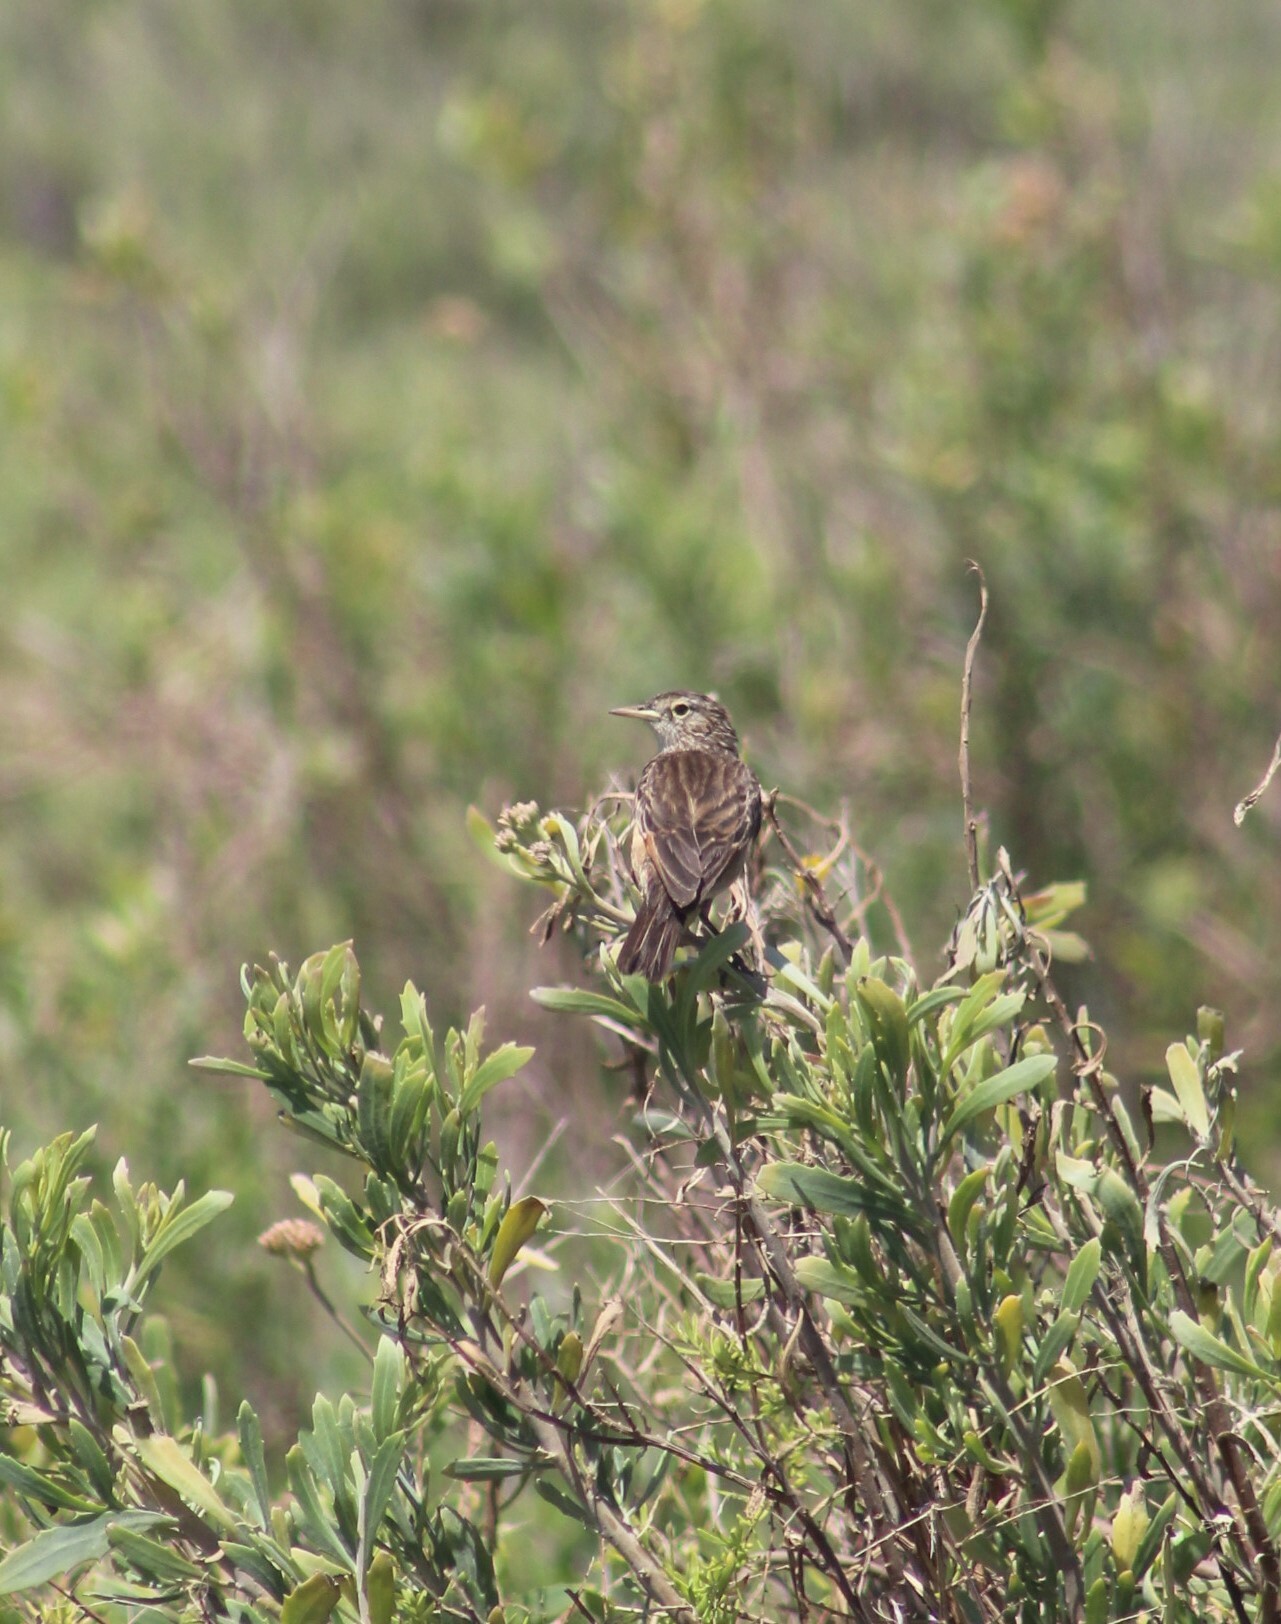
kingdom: Animalia
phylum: Chordata
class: Aves
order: Passeriformes
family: Tyrannidae
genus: Hymenops
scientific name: Hymenops perspicillatus
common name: Spectacled tyrant
